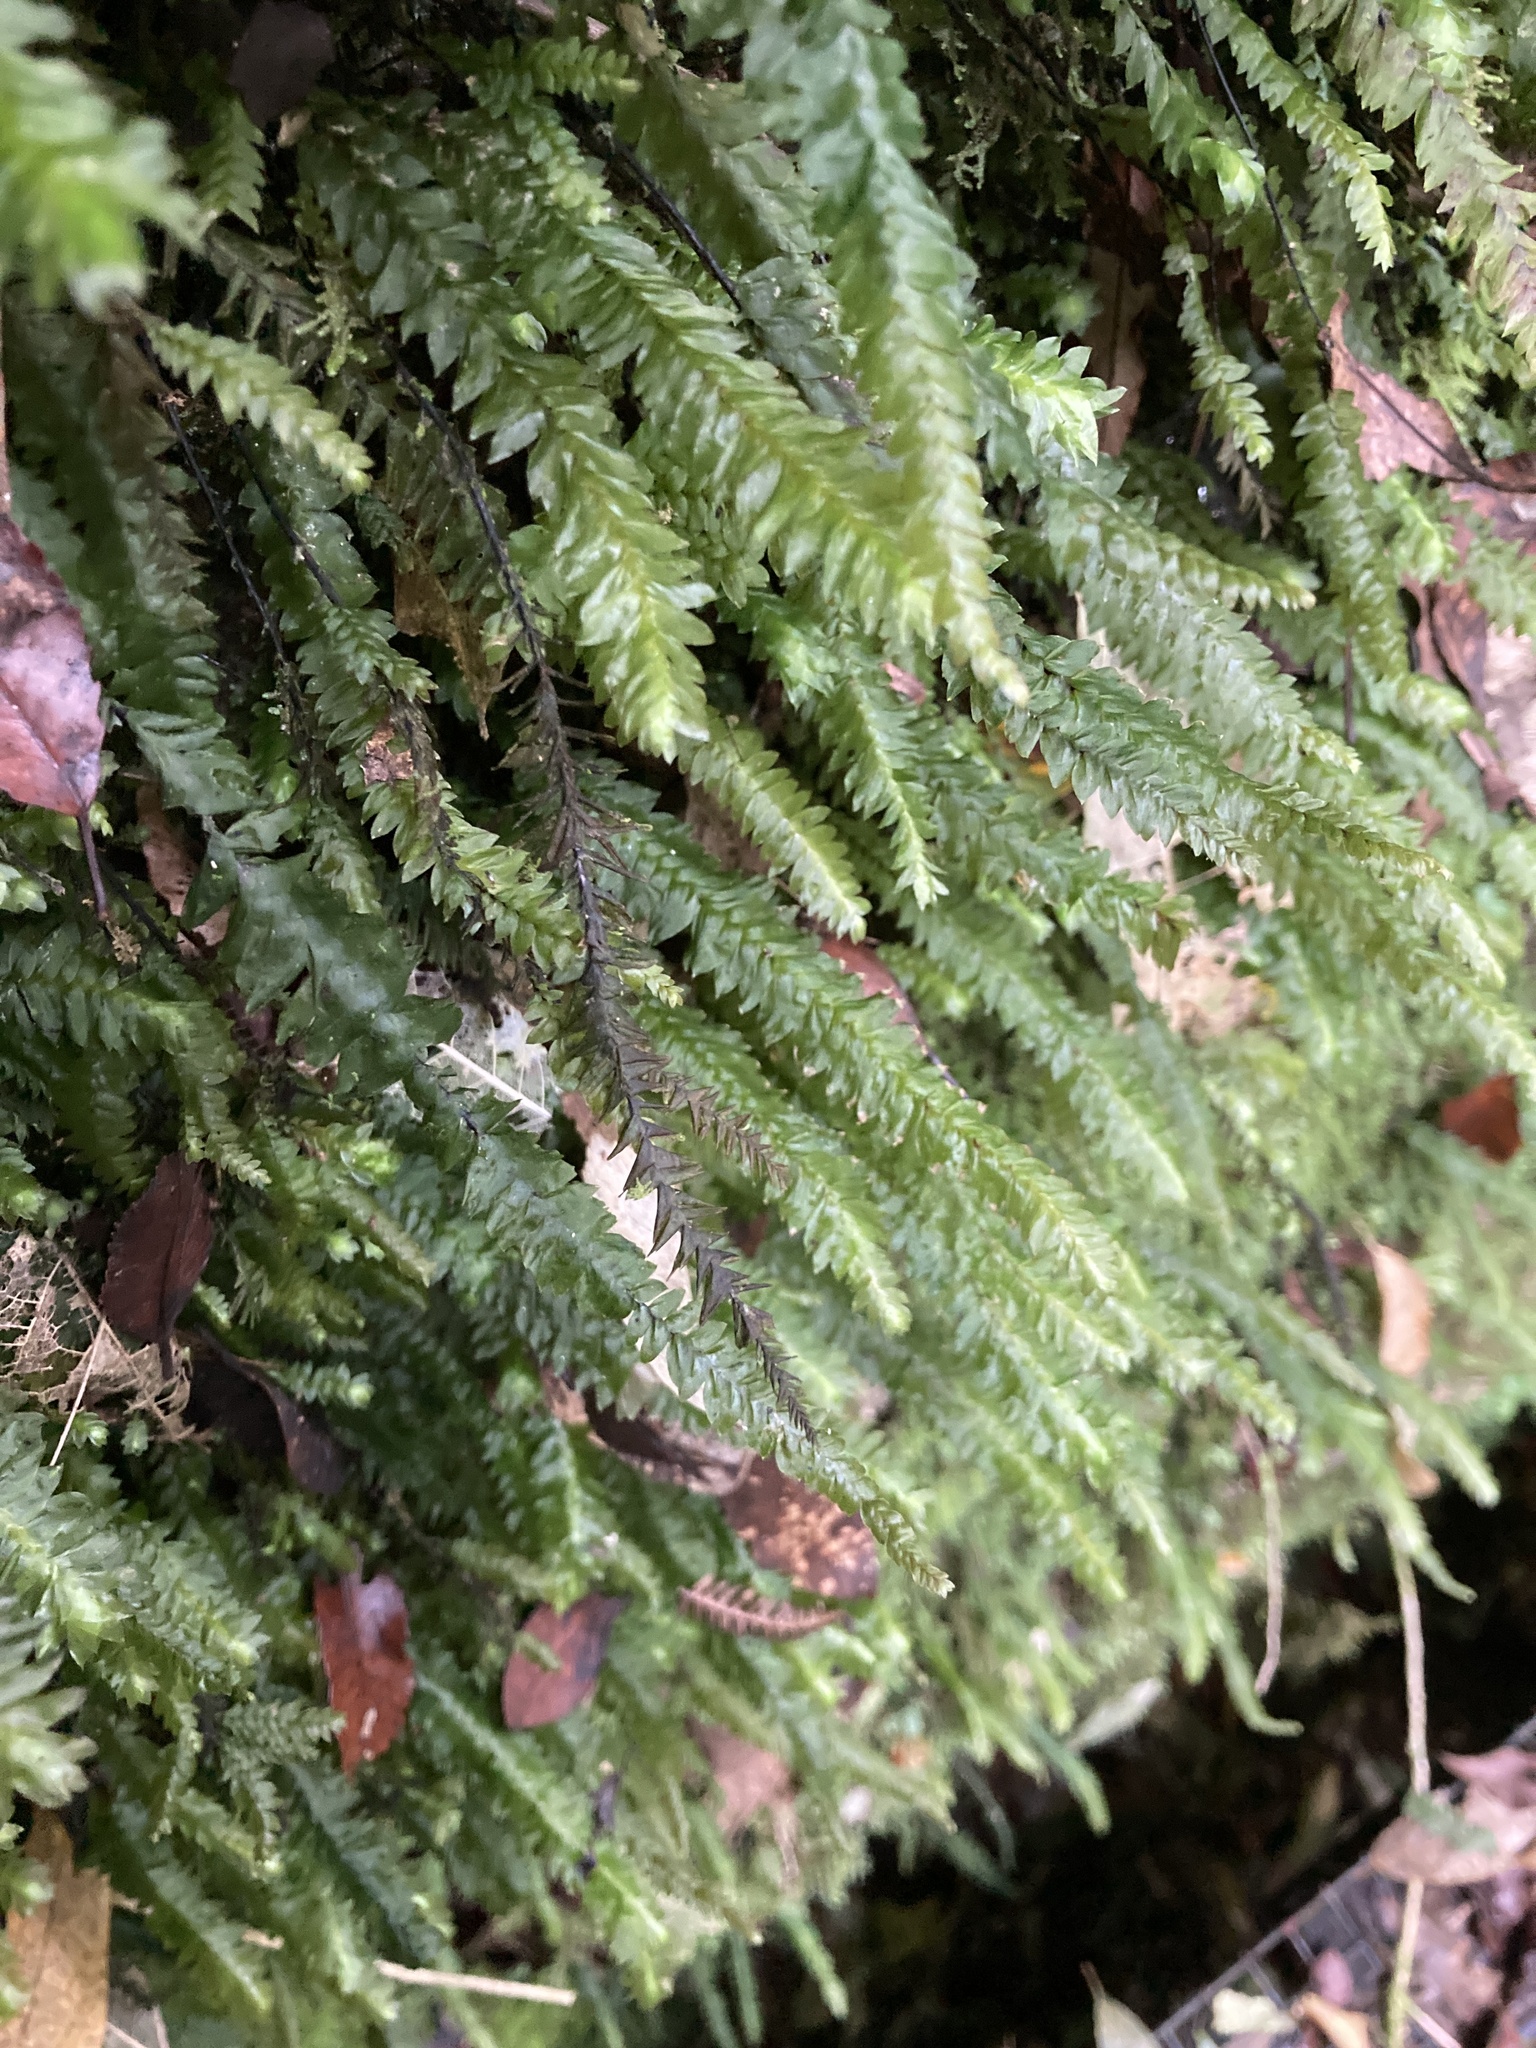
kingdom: Plantae
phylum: Bryophyta
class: Bryopsida
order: Hypopterygiales
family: Hypopterygiaceae
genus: Cyathophorum
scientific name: Cyathophorum bulbosum
